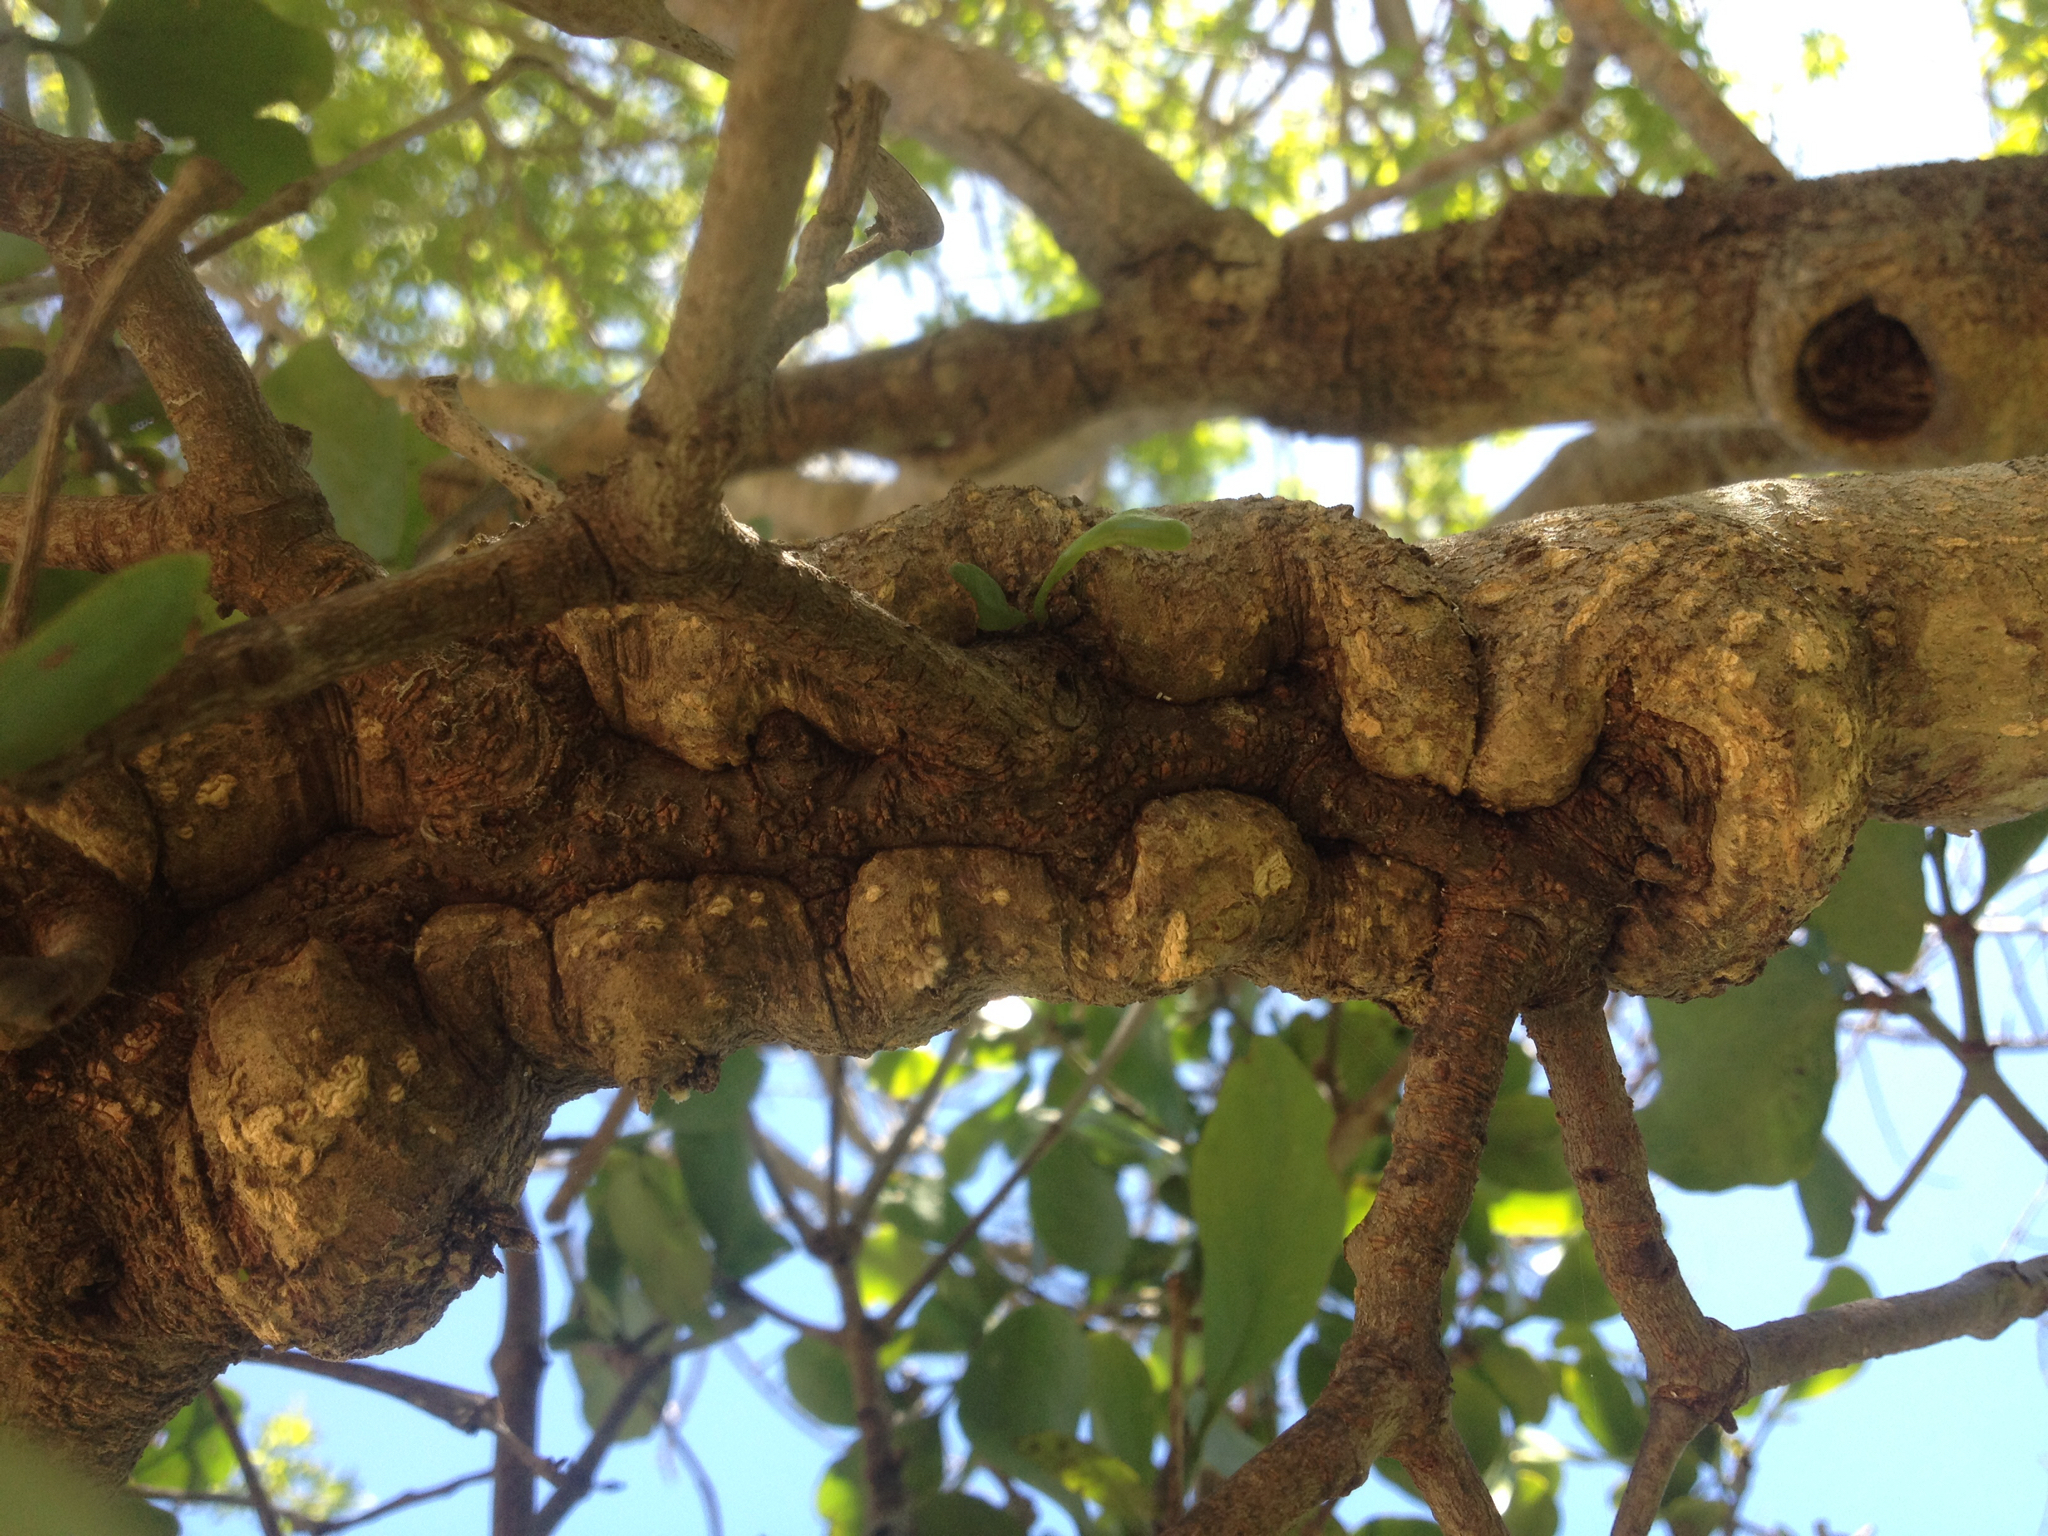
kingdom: Plantae
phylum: Tracheophyta
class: Magnoliopsida
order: Santalales
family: Loranthaceae
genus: Ileostylus
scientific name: Ileostylus micranthus
